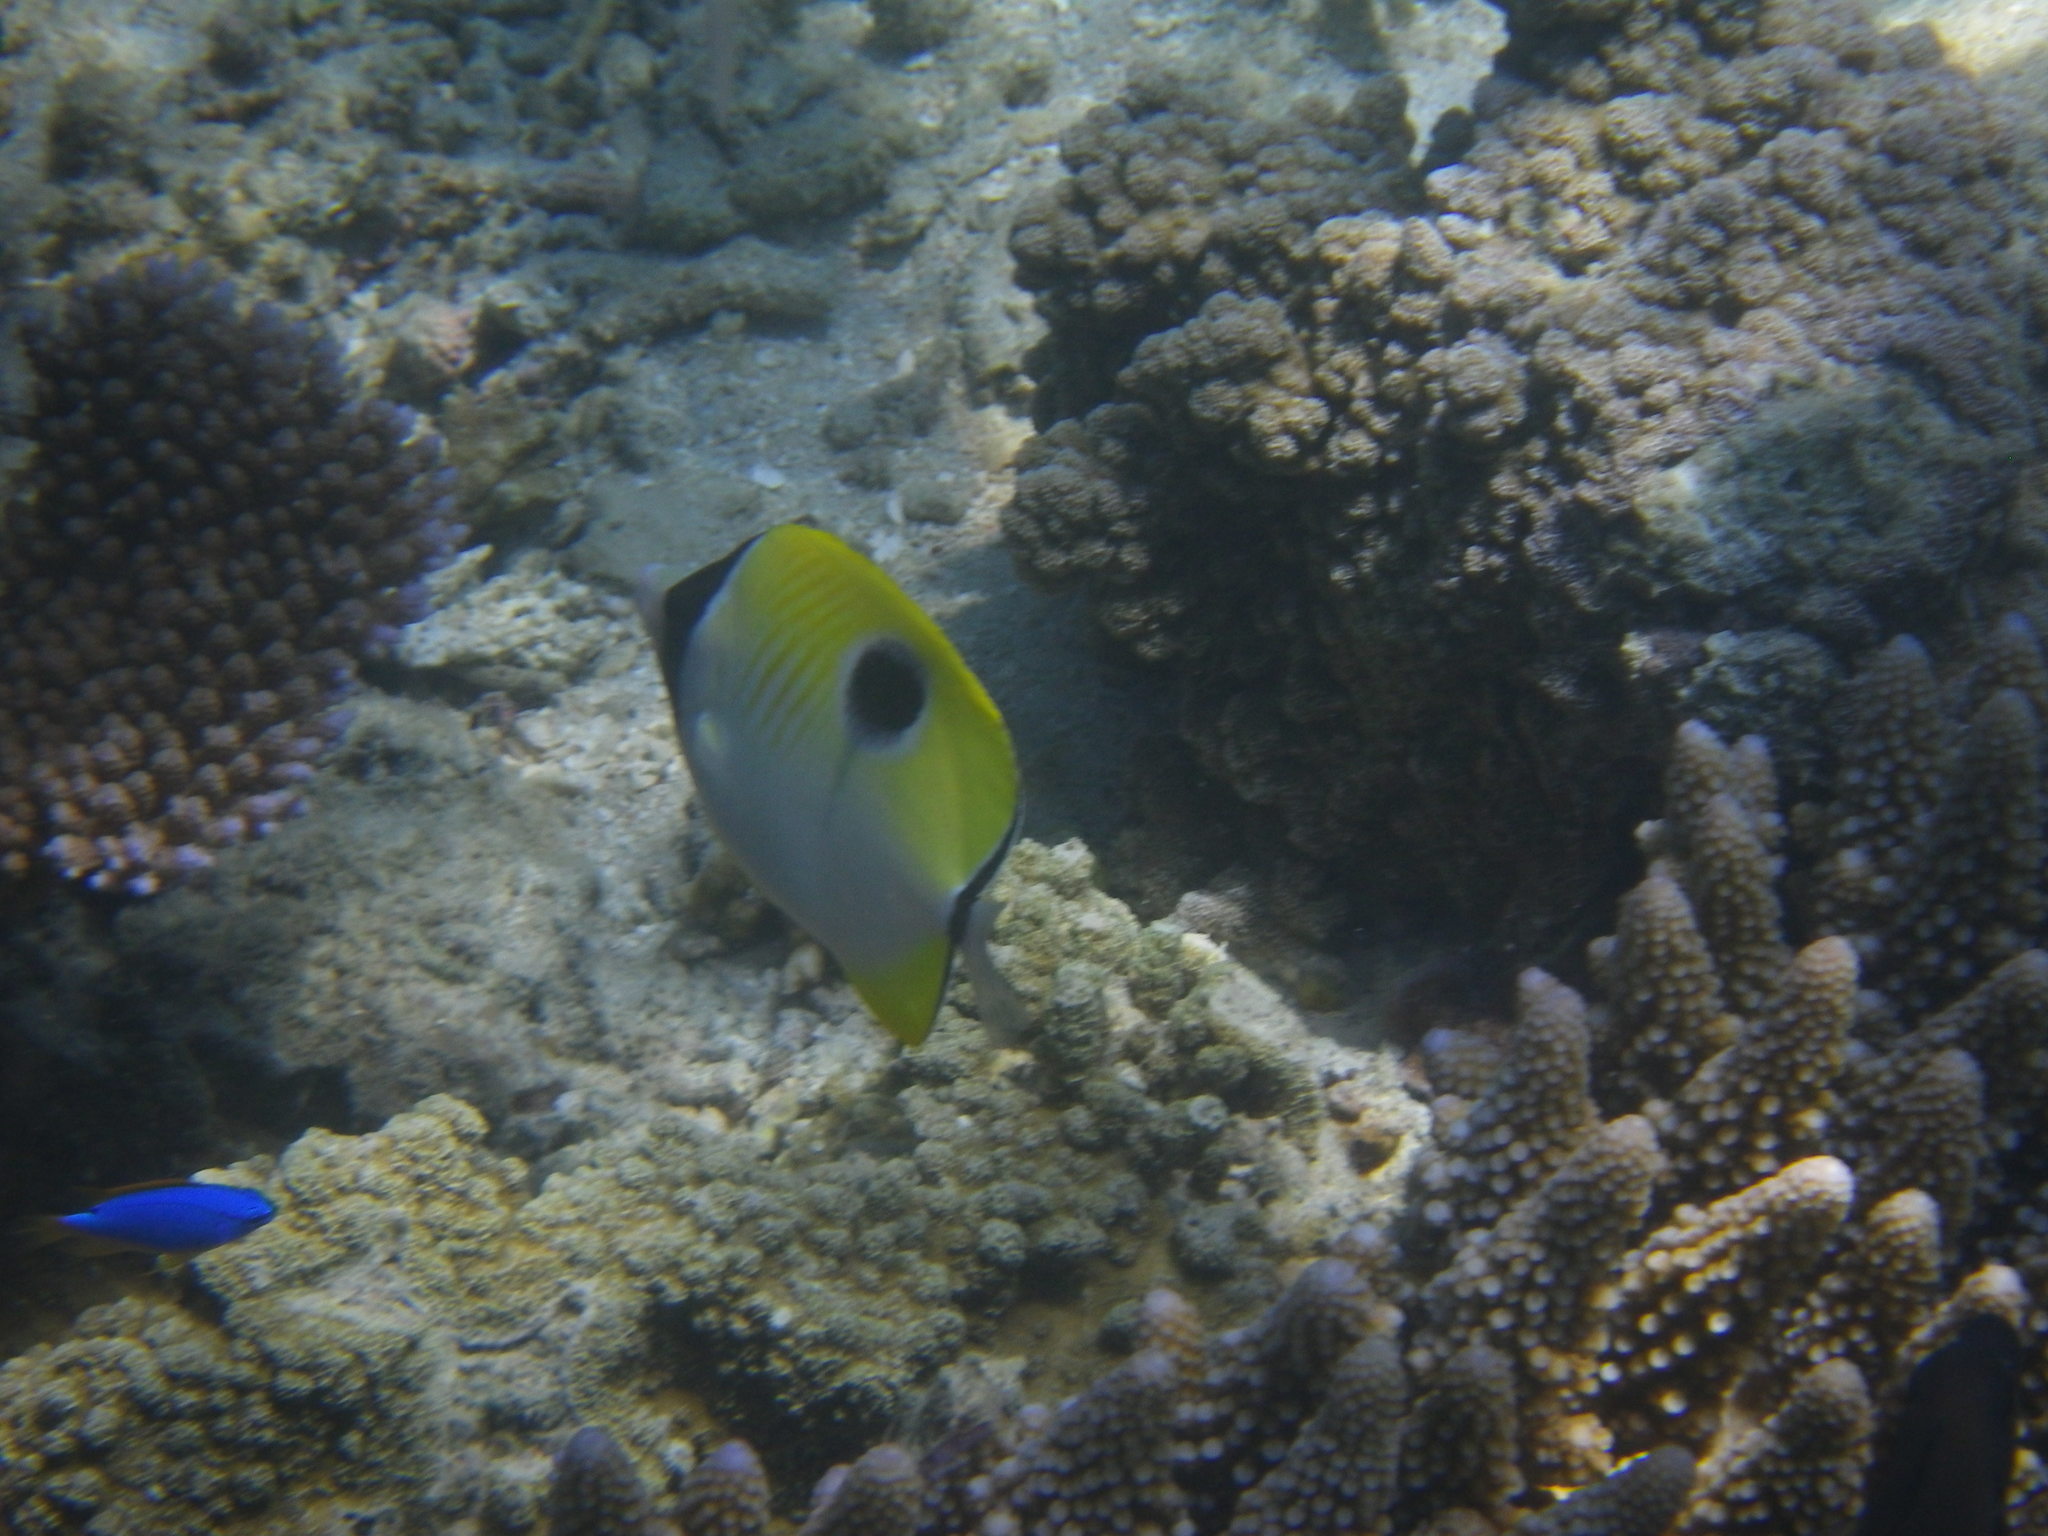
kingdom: Animalia
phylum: Chordata
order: Perciformes
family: Chaetodontidae
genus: Chaetodon
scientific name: Chaetodon unimaculatus
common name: Teardrop butterflyfish
